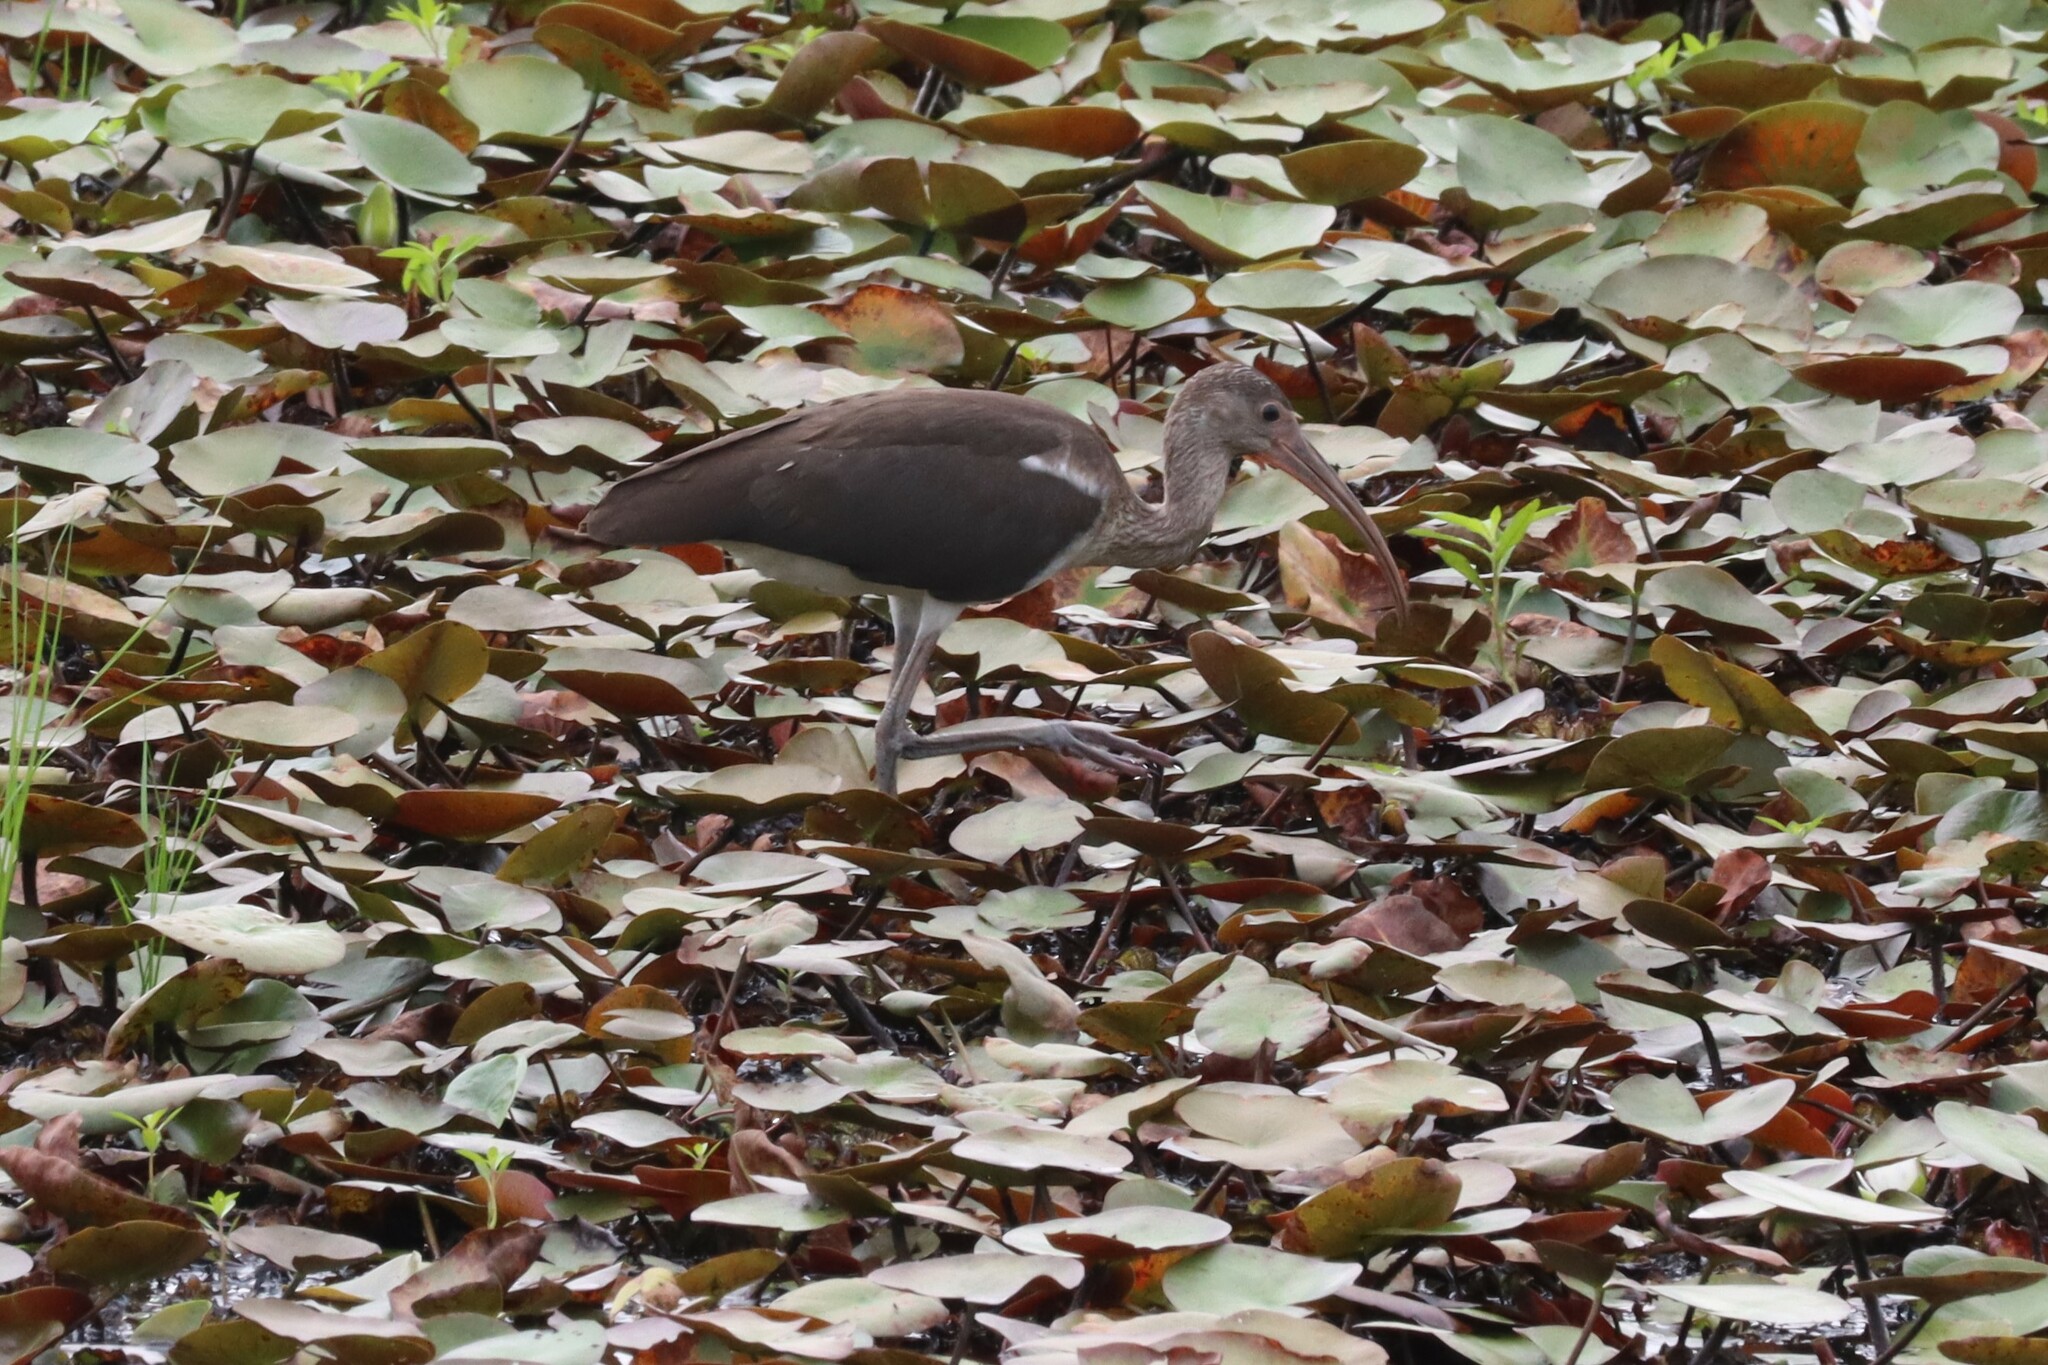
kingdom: Animalia
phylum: Chordata
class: Aves
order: Pelecaniformes
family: Threskiornithidae
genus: Eudocimus
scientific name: Eudocimus albus
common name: White ibis
